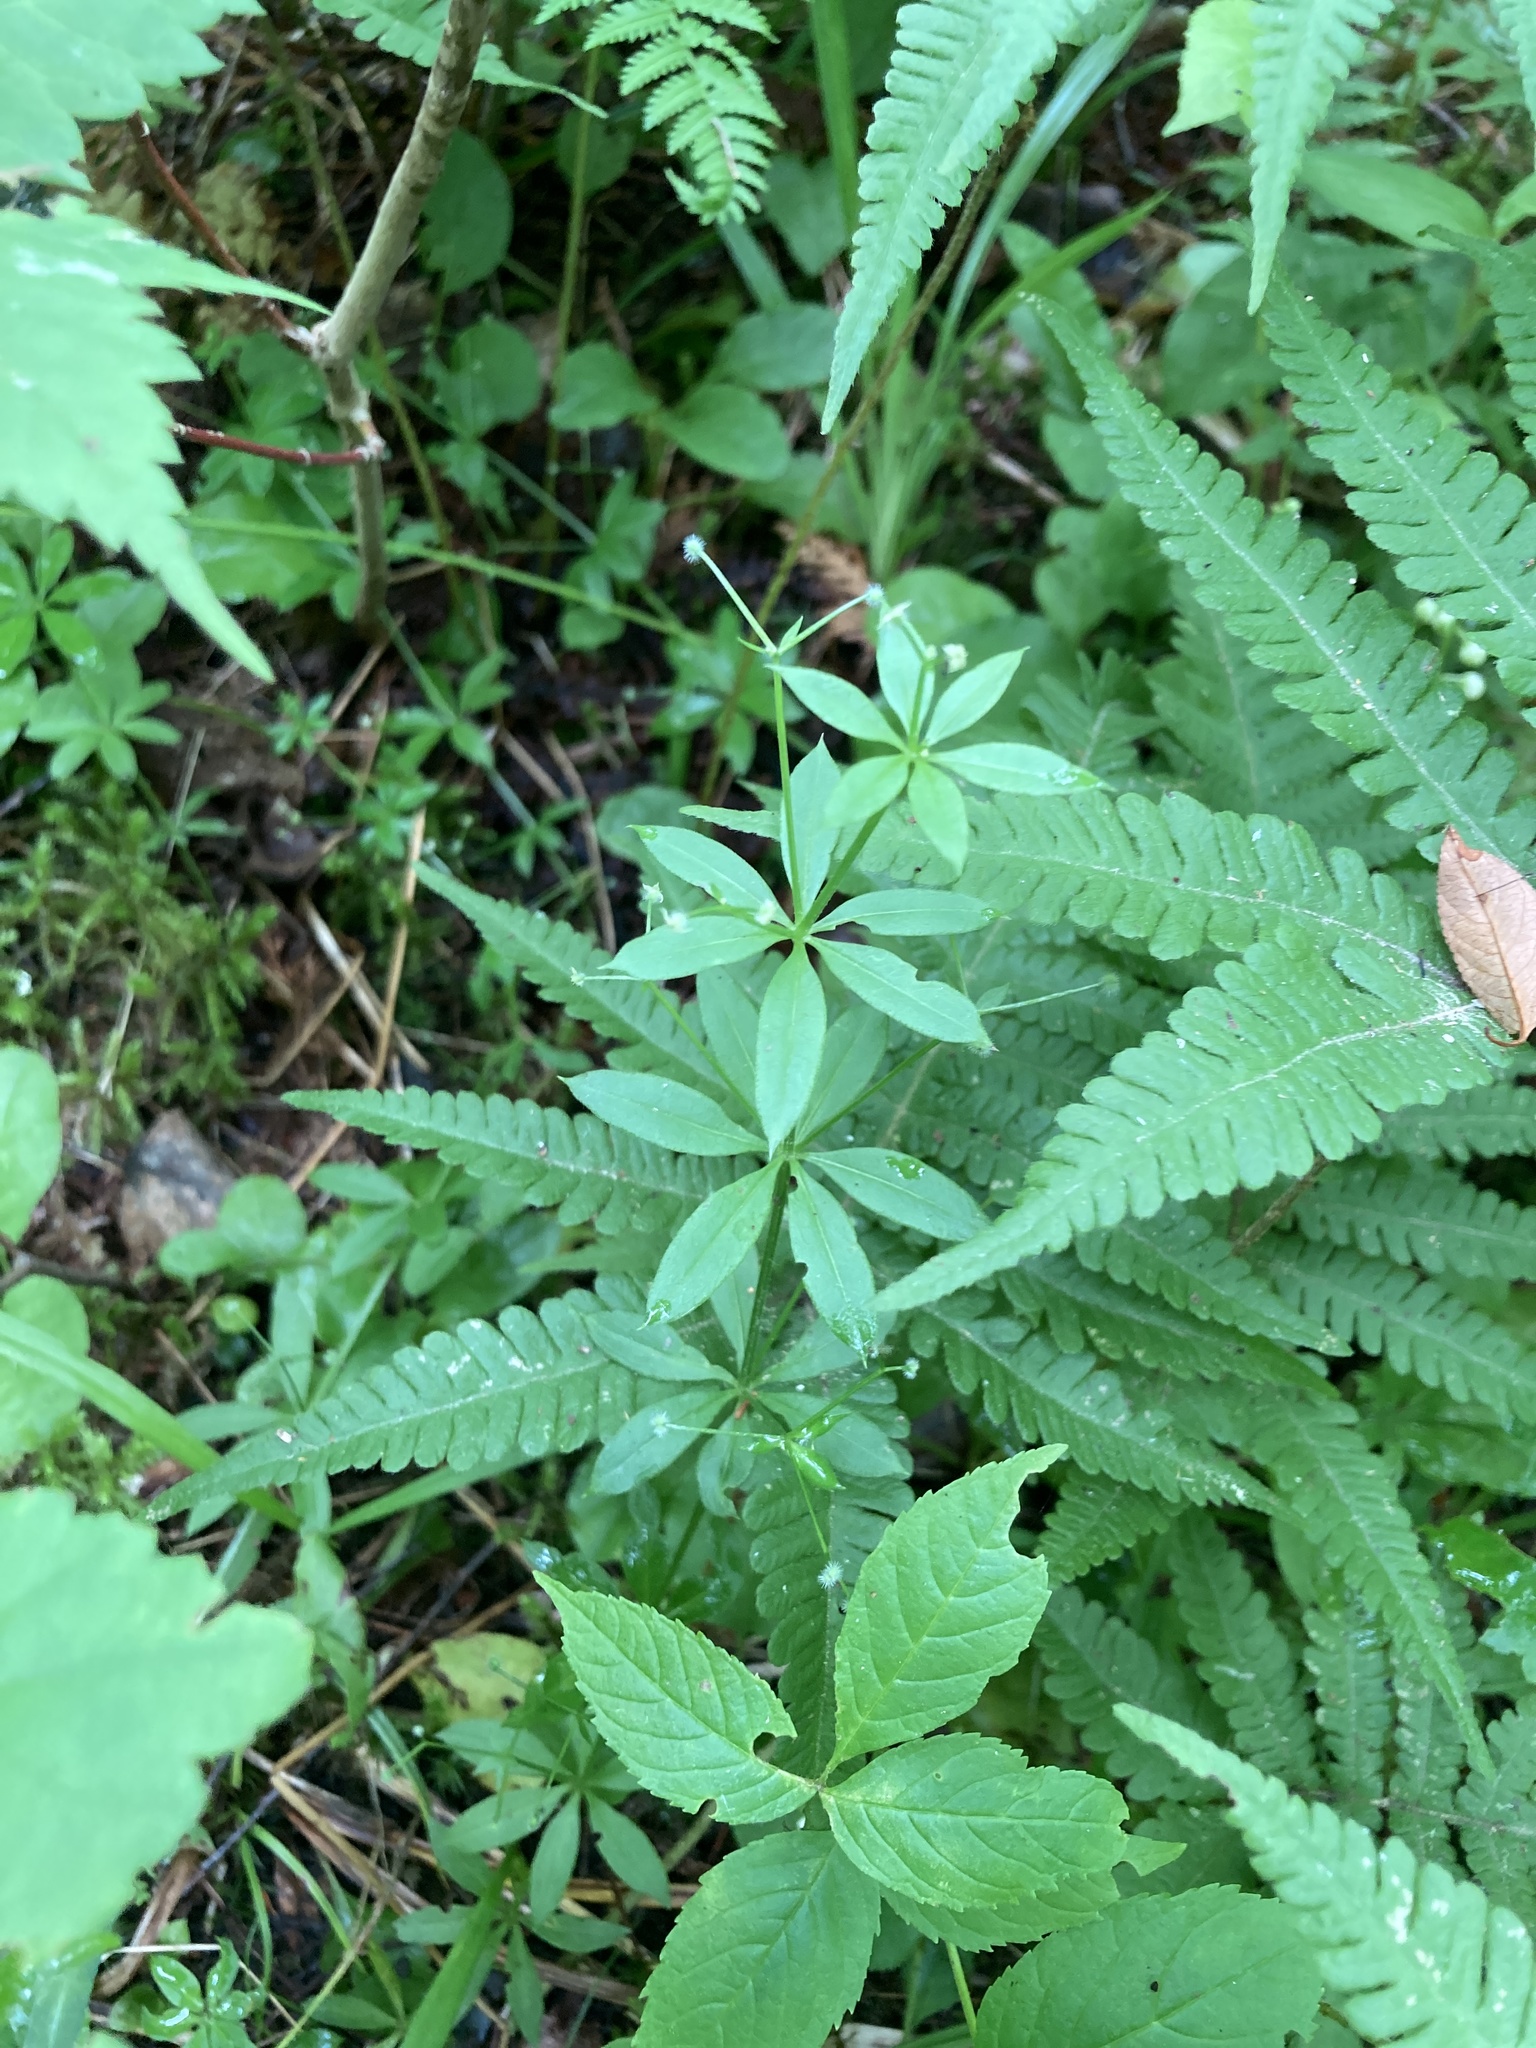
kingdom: Plantae
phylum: Tracheophyta
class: Magnoliopsida
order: Gentianales
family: Rubiaceae
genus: Galium
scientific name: Galium triflorum
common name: Fragrant bedstraw
